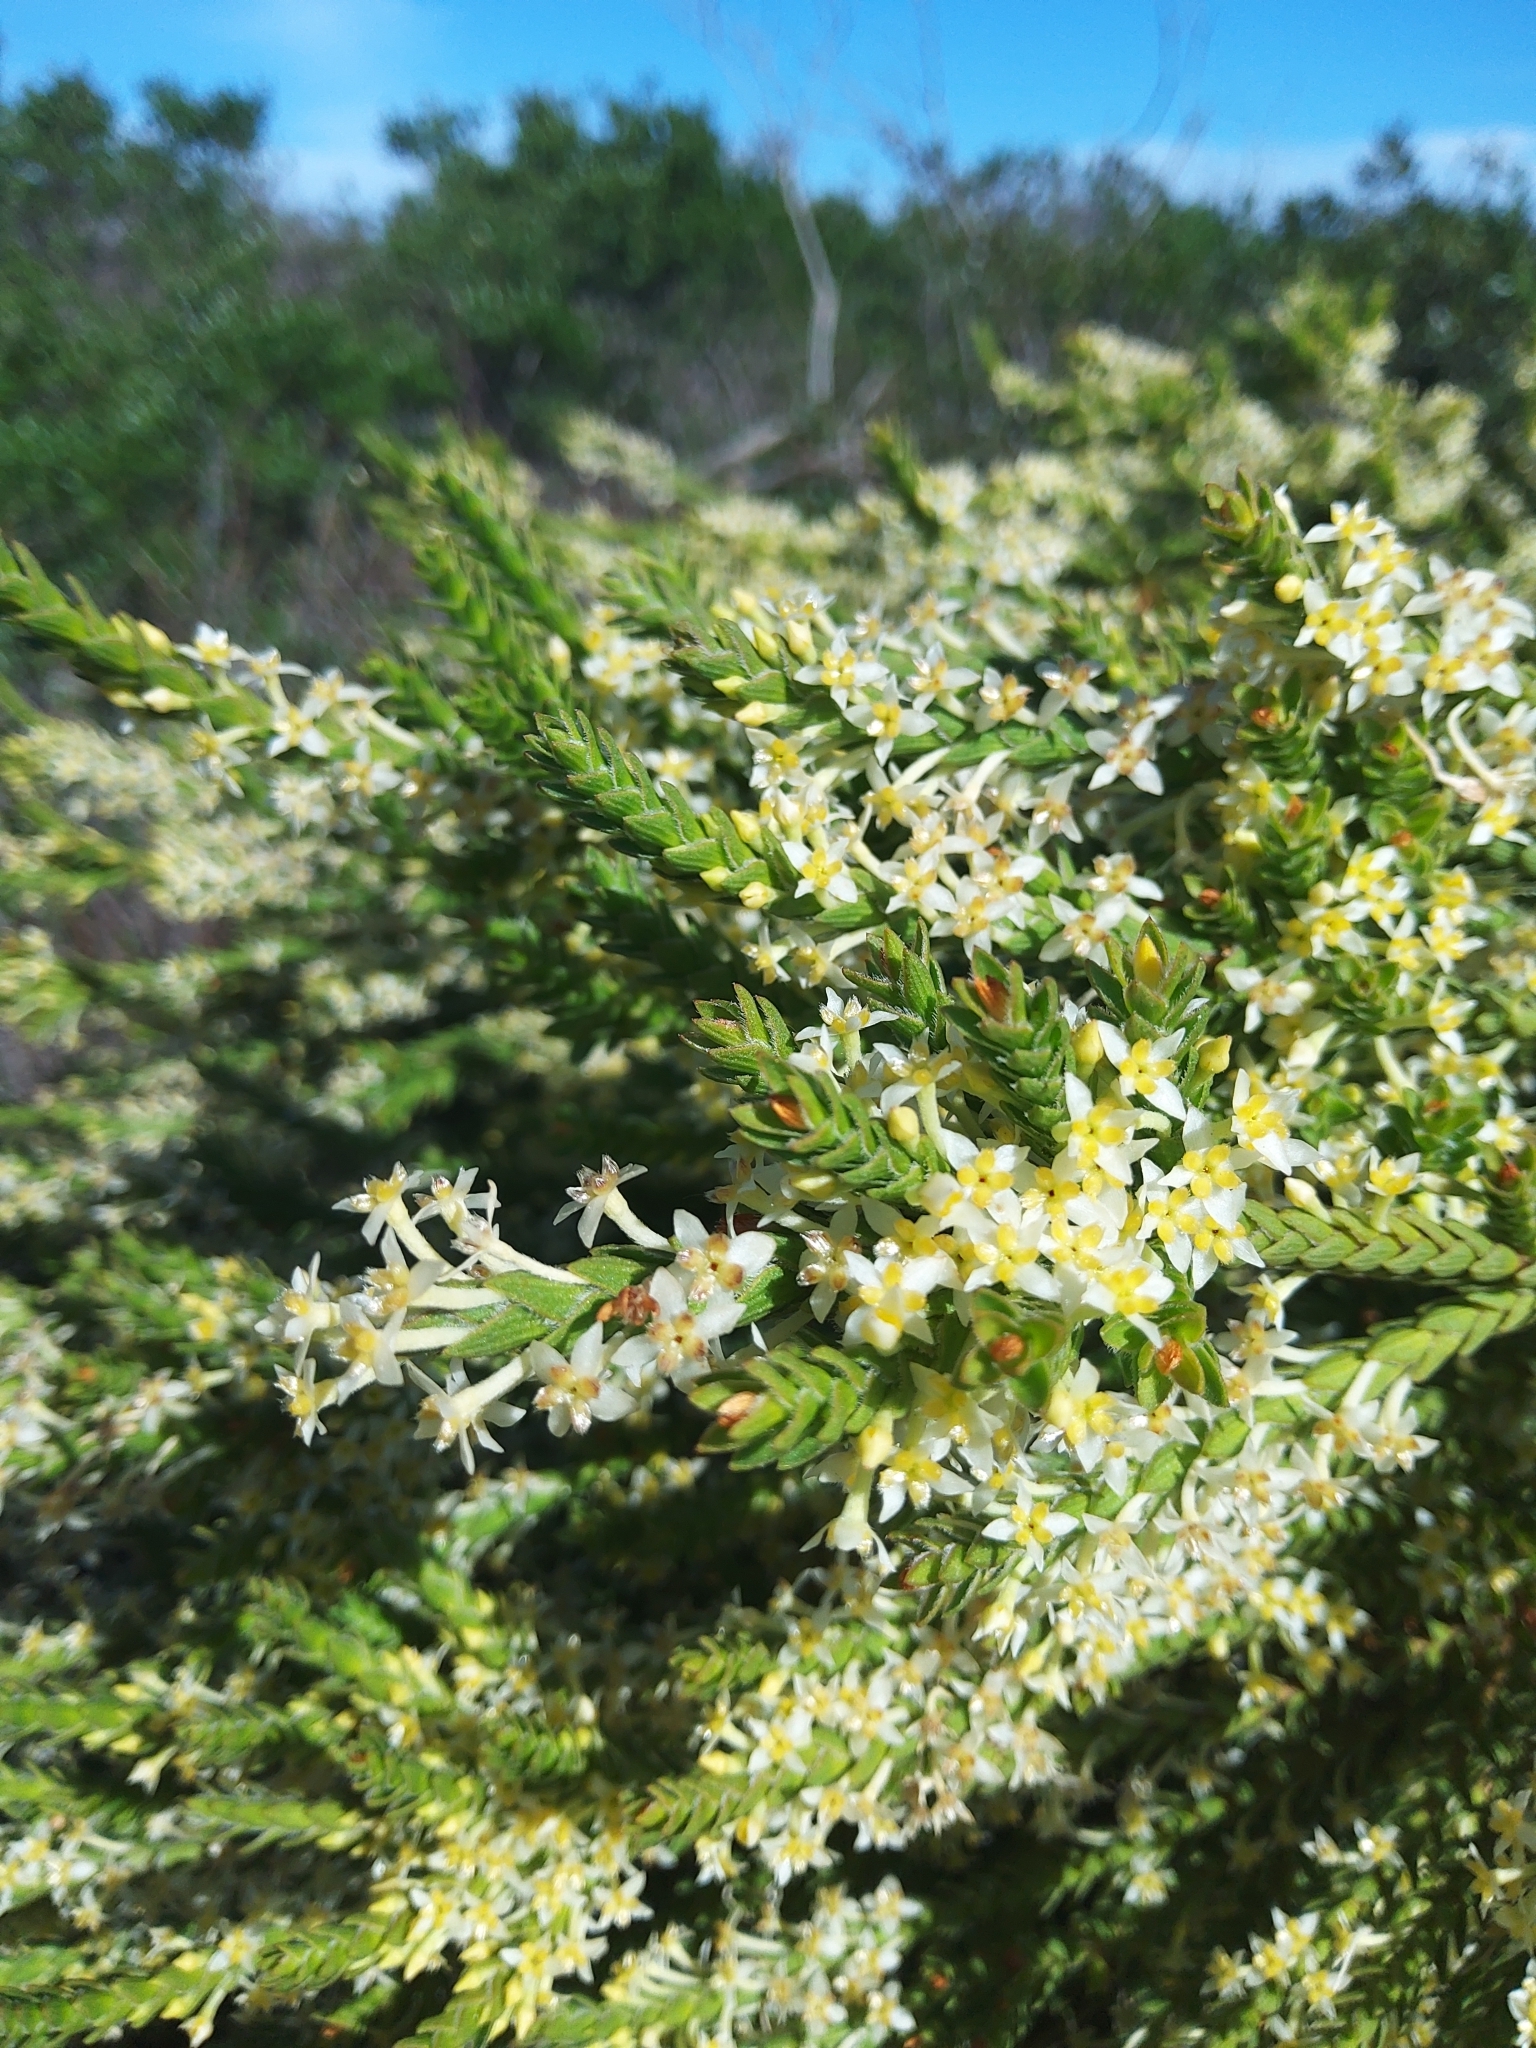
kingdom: Plantae
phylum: Tracheophyta
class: Magnoliopsida
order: Malvales
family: Thymelaeaceae
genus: Struthiola
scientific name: Struthiola striata
